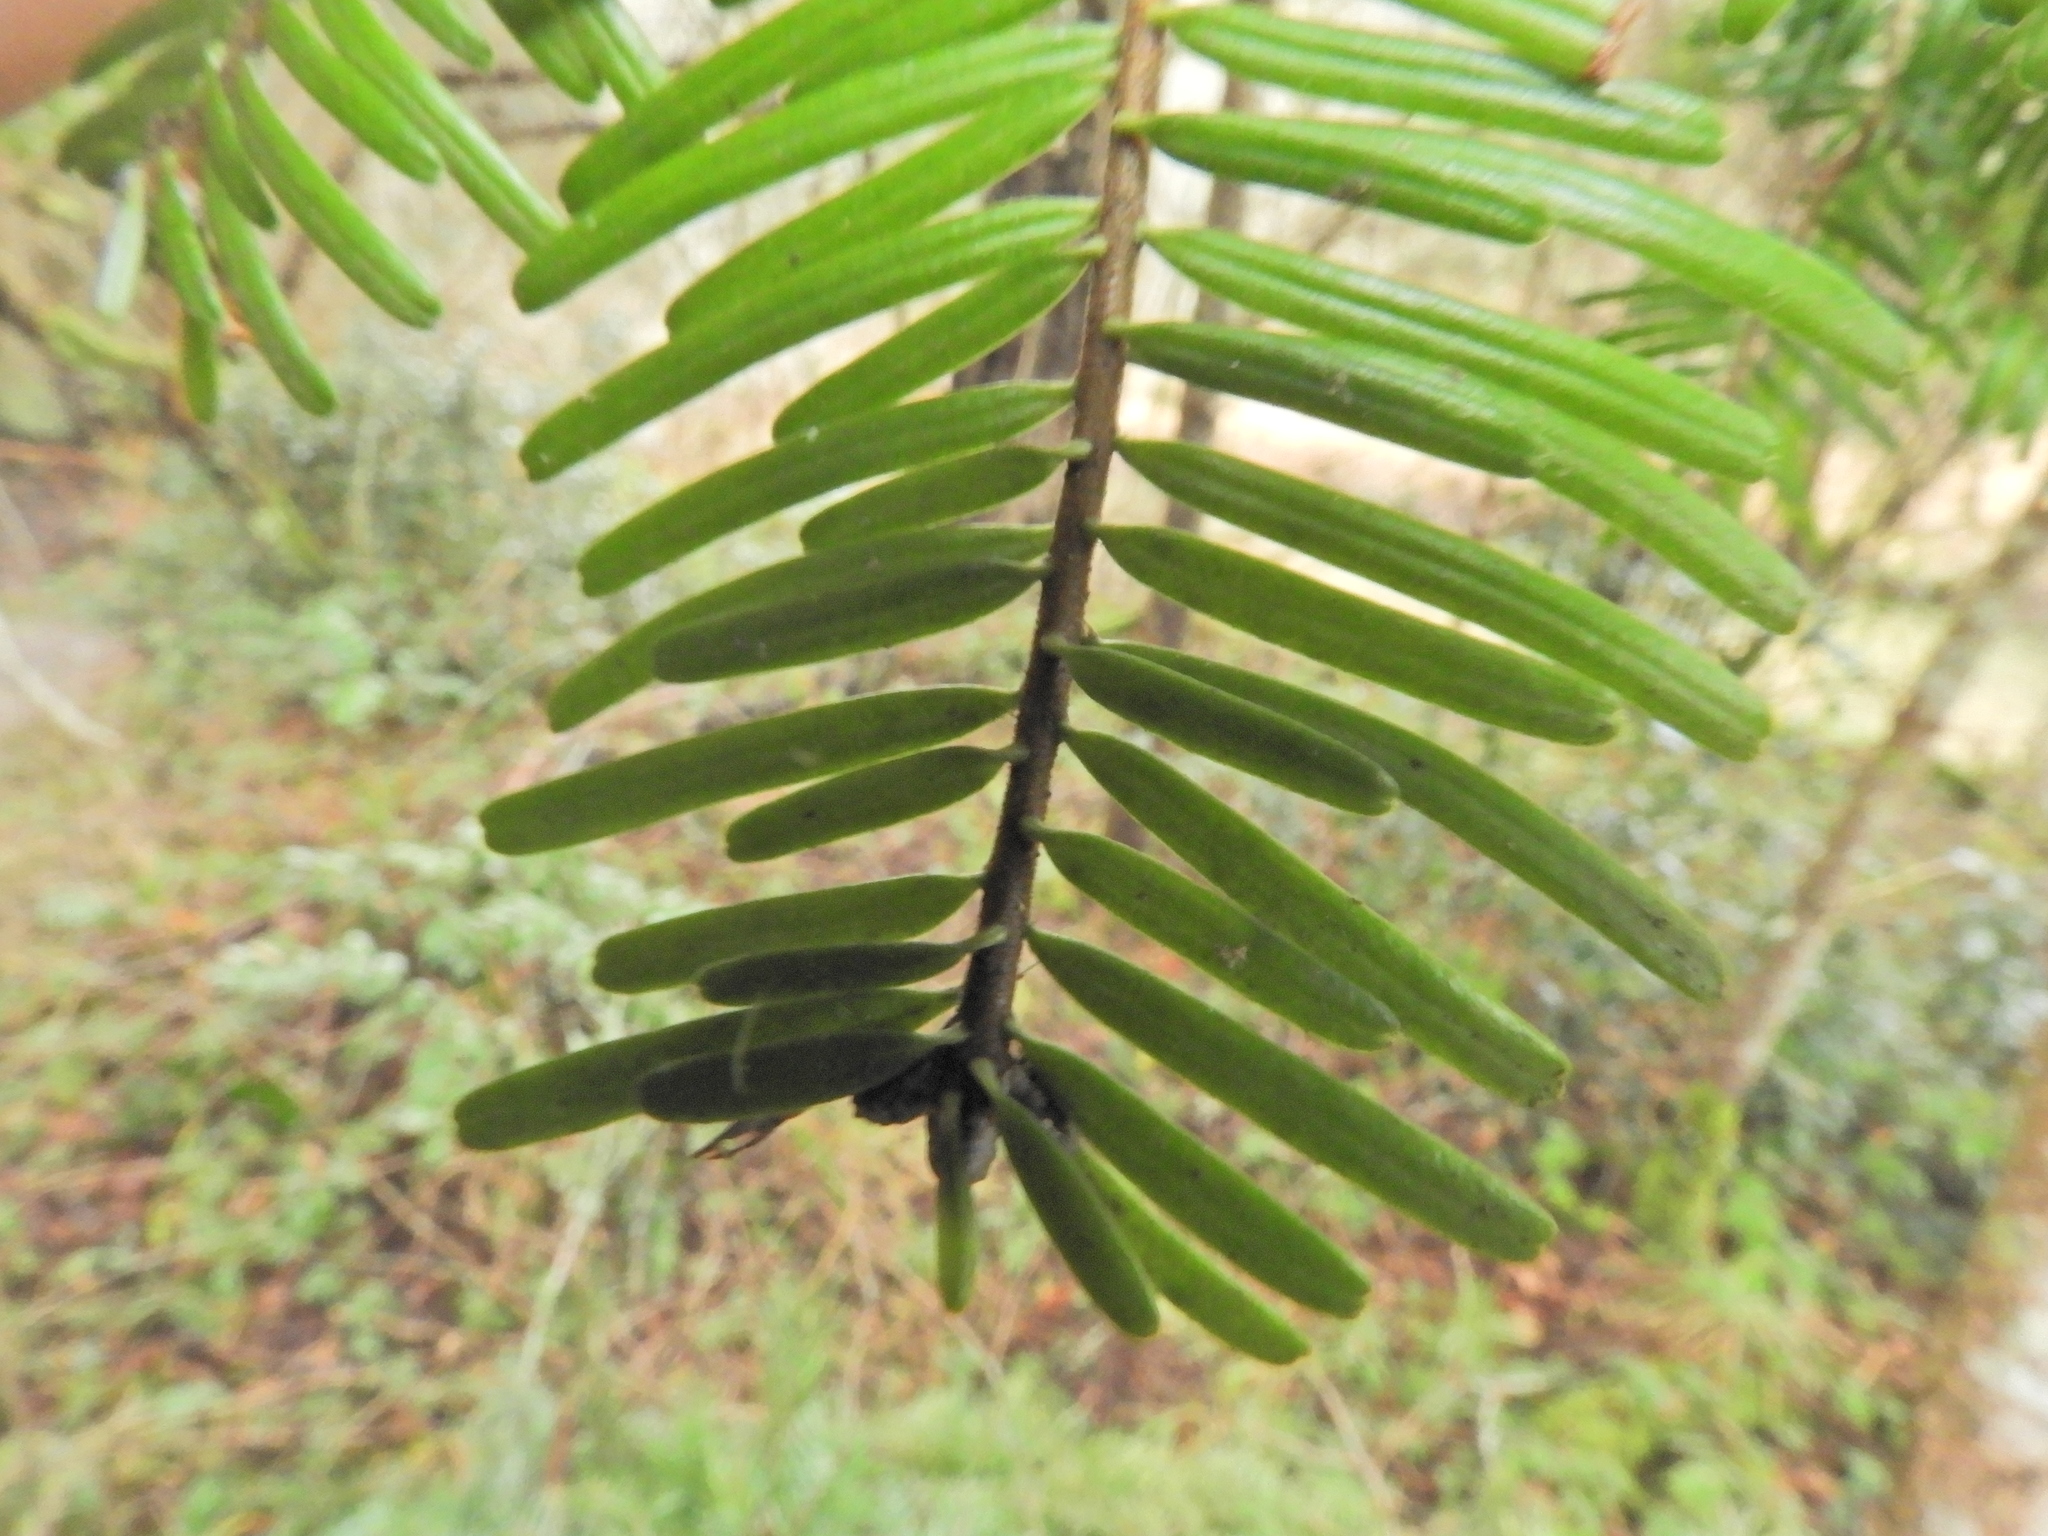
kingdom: Plantae
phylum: Tracheophyta
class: Pinopsida
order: Pinales
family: Pinaceae
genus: Abies
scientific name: Abies grandis
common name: Giant fir
